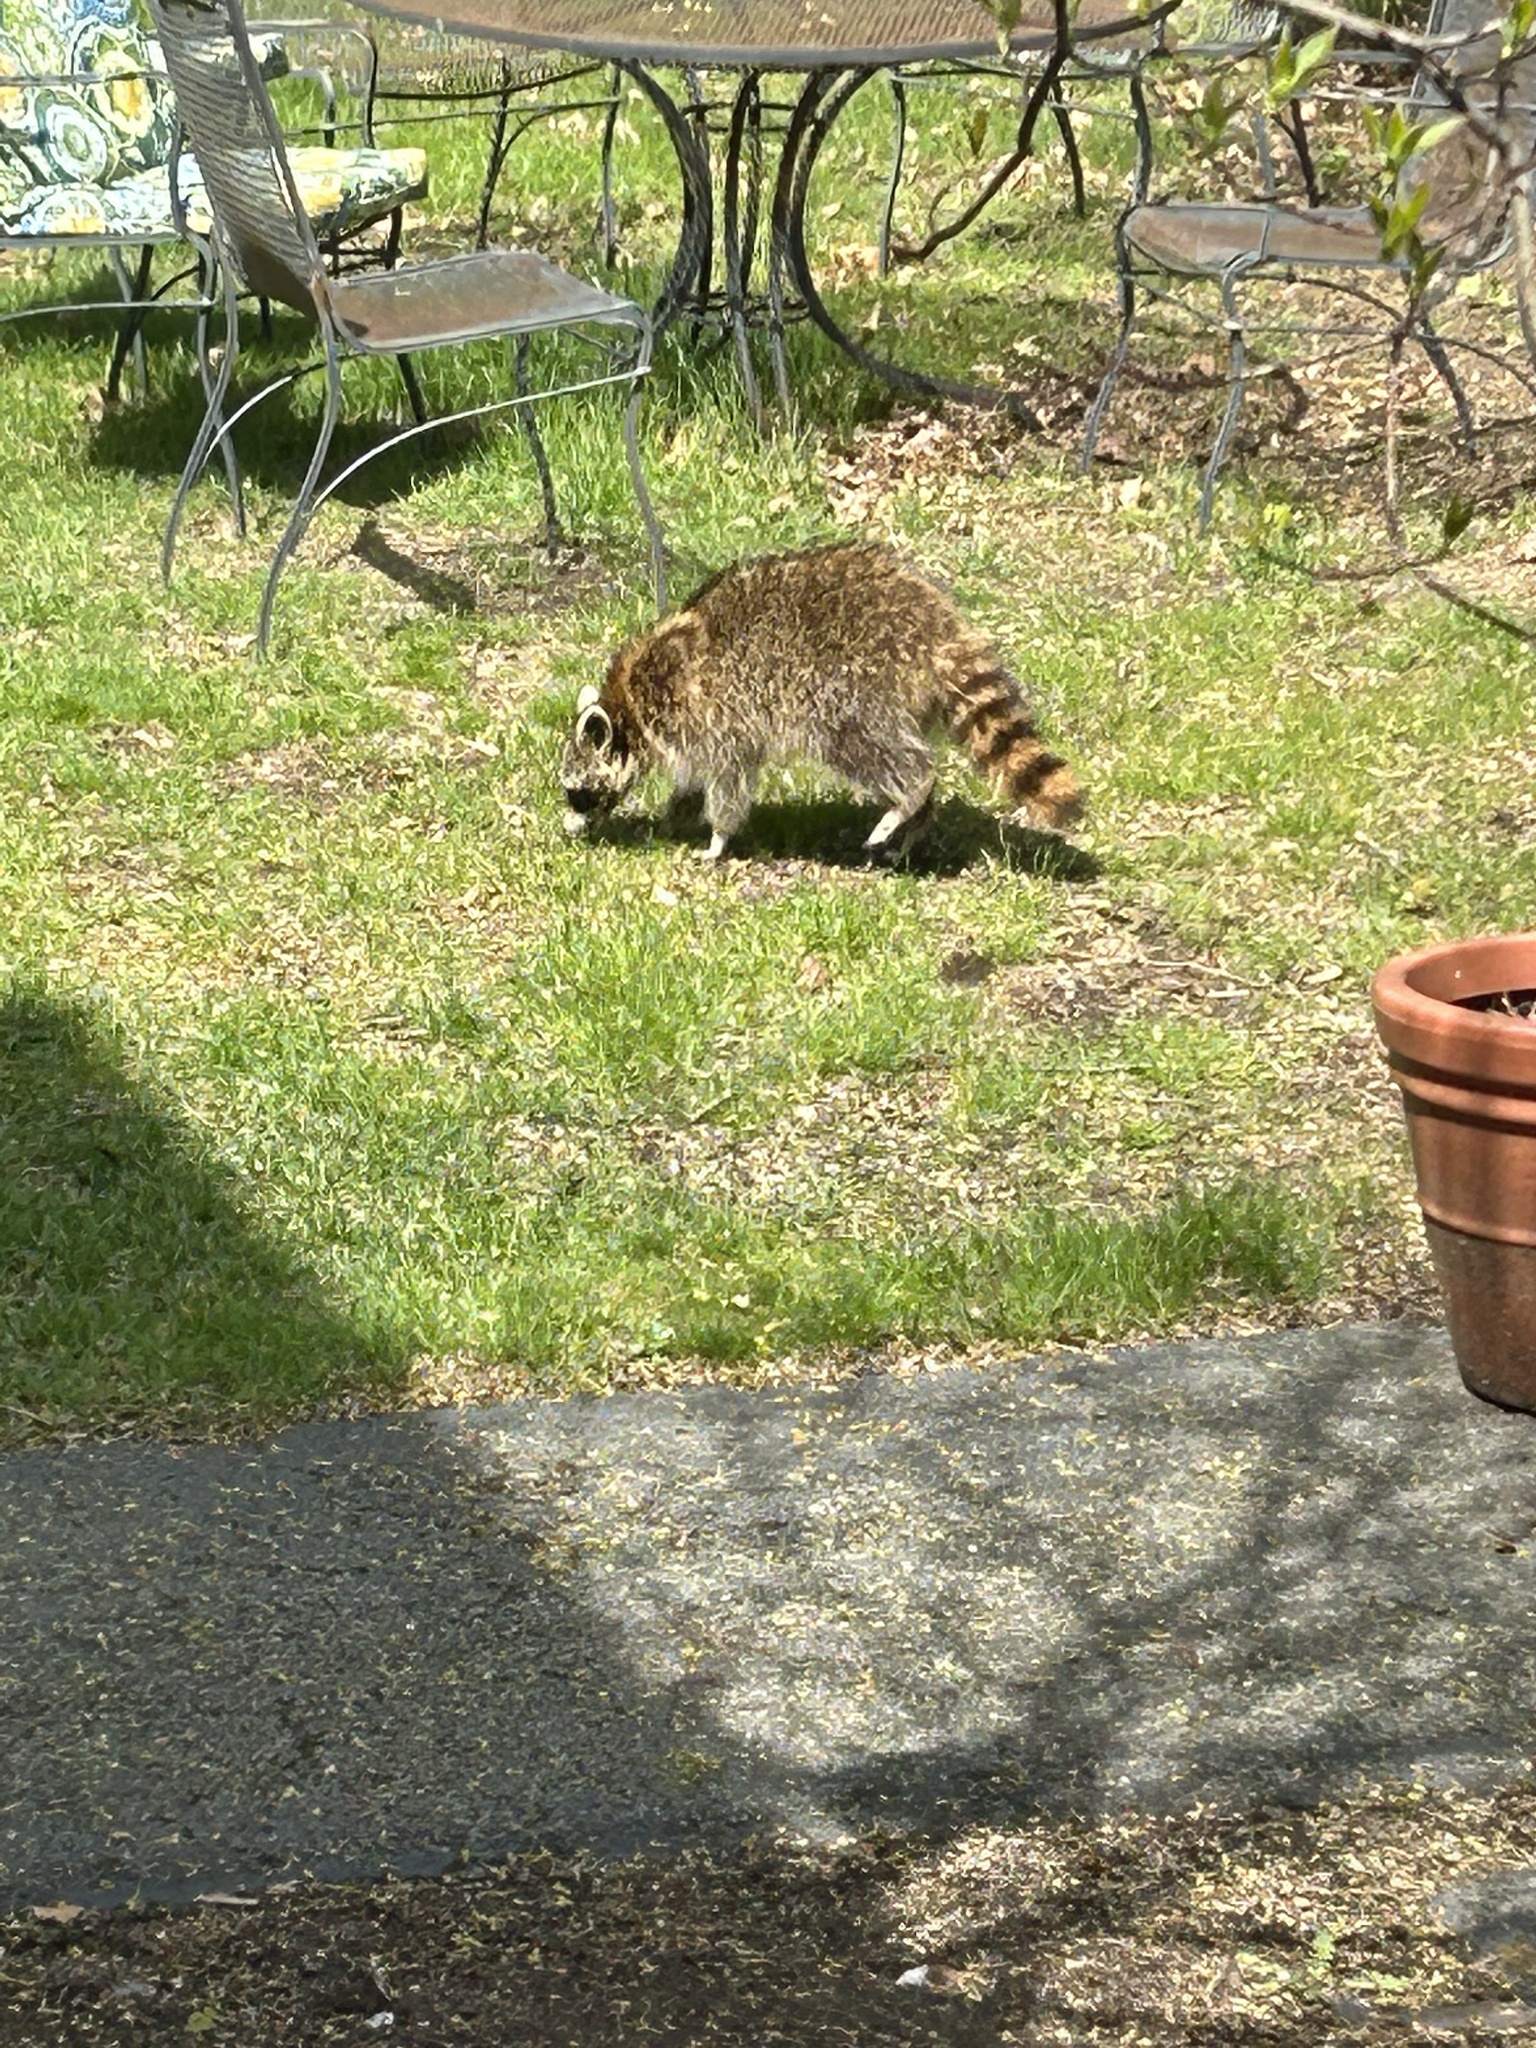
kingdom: Animalia
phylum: Chordata
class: Mammalia
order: Carnivora
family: Procyonidae
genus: Procyon
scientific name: Procyon lotor
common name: Raccoon
